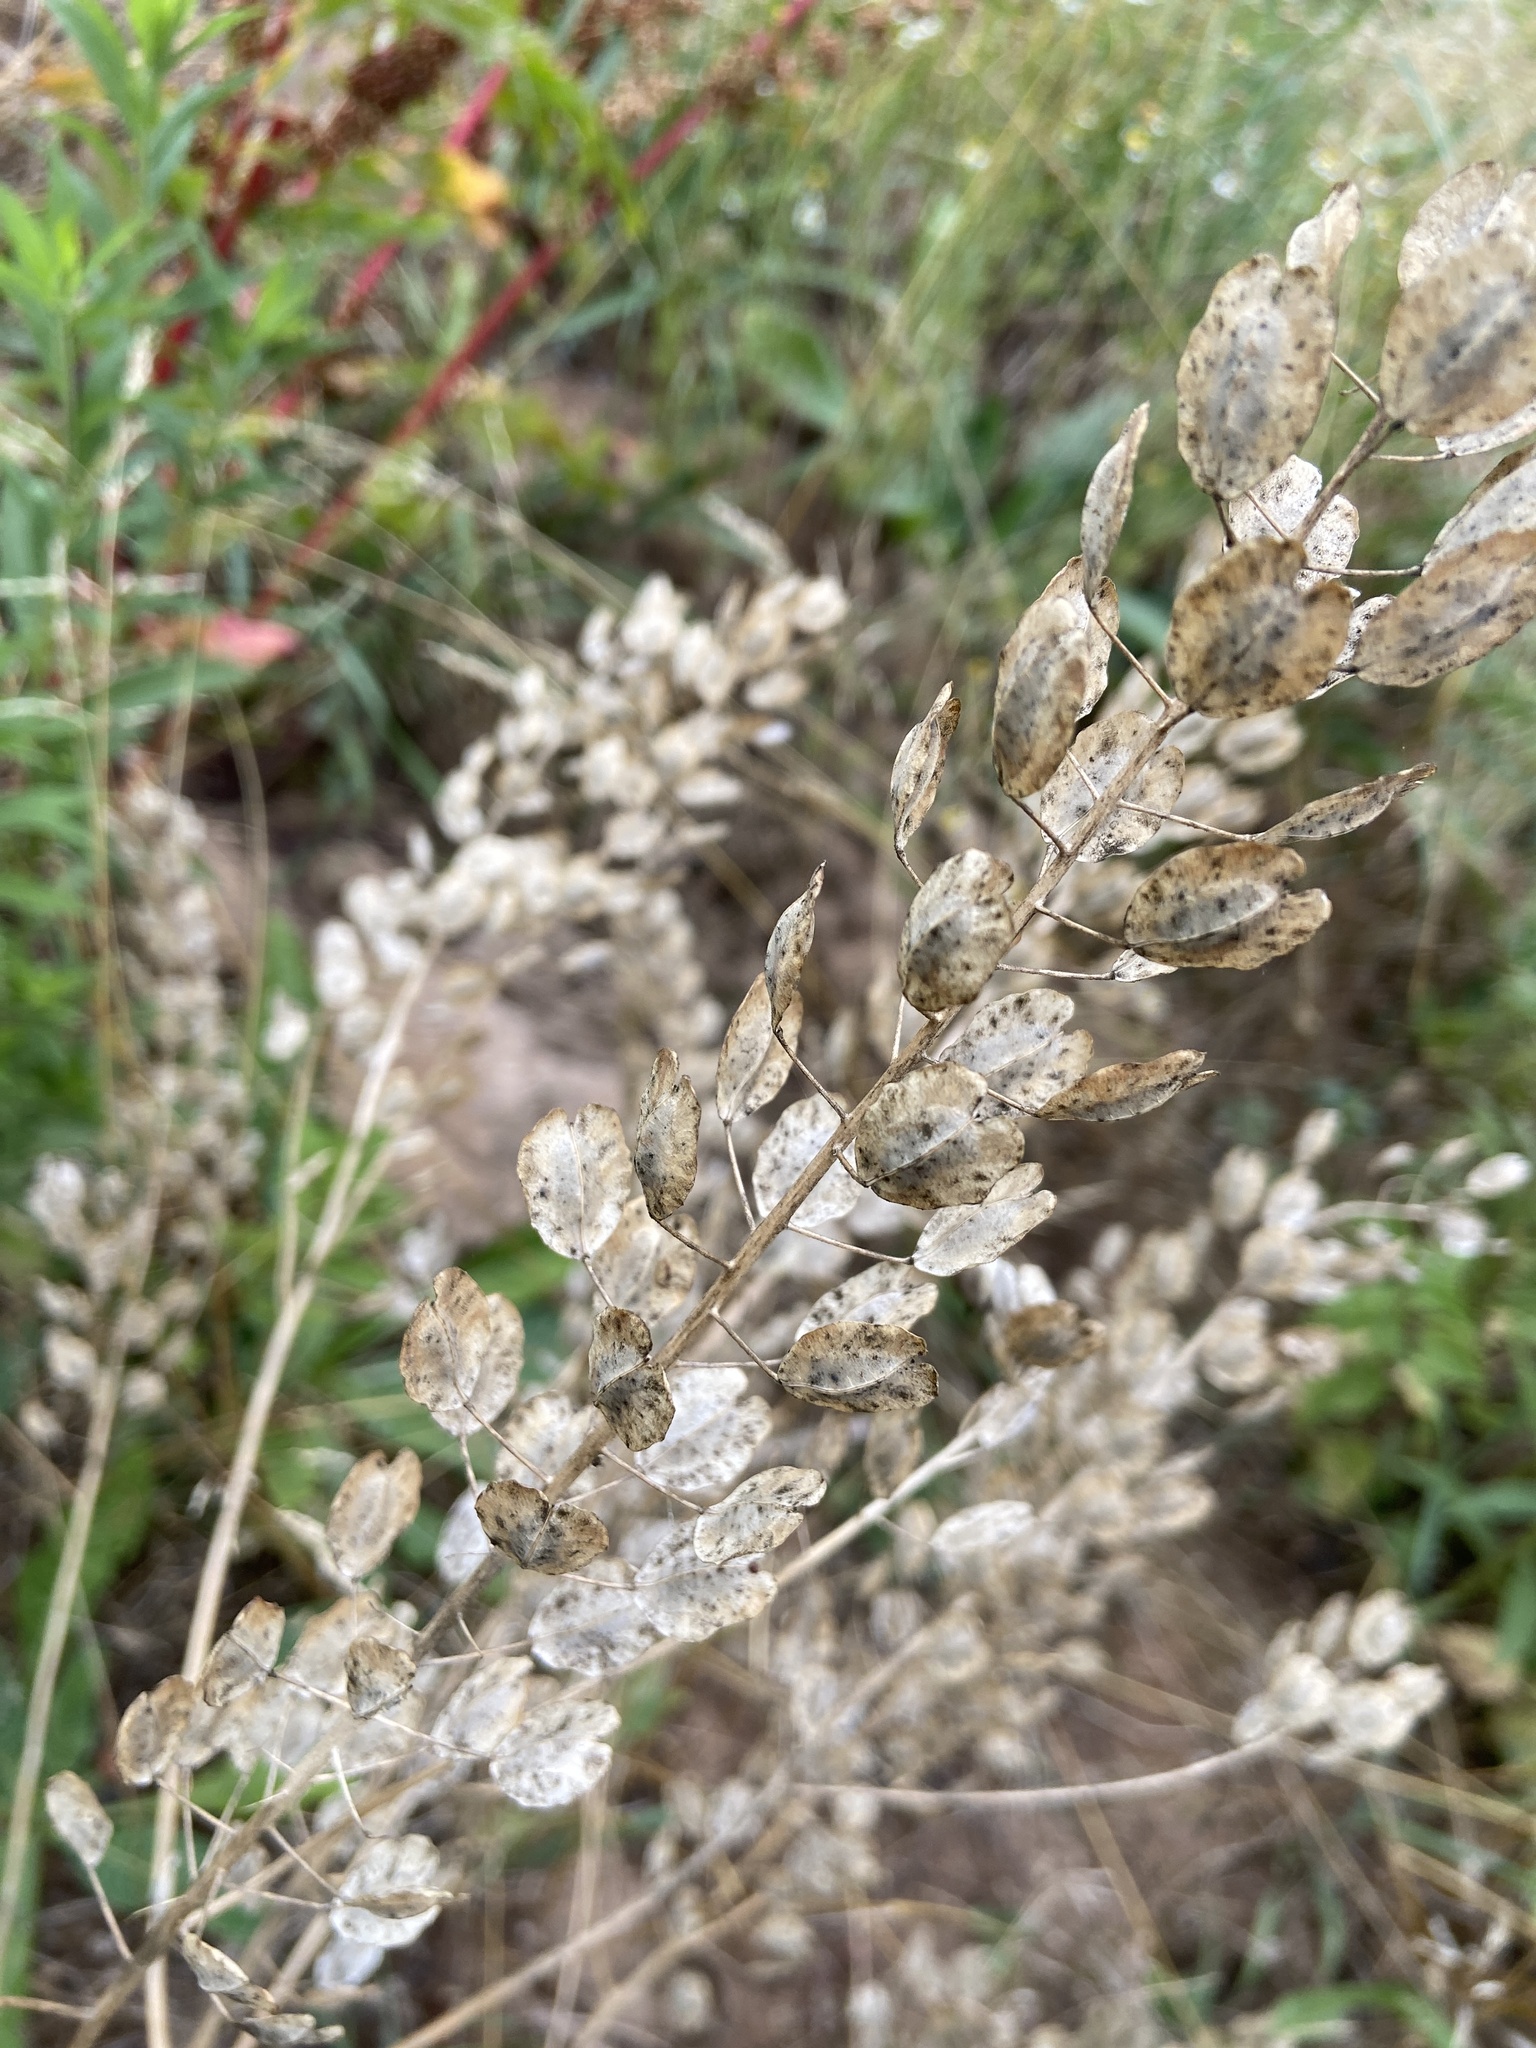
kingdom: Plantae
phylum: Tracheophyta
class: Magnoliopsida
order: Brassicales
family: Brassicaceae
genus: Thlaspi
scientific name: Thlaspi arvense
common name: Field pennycress
